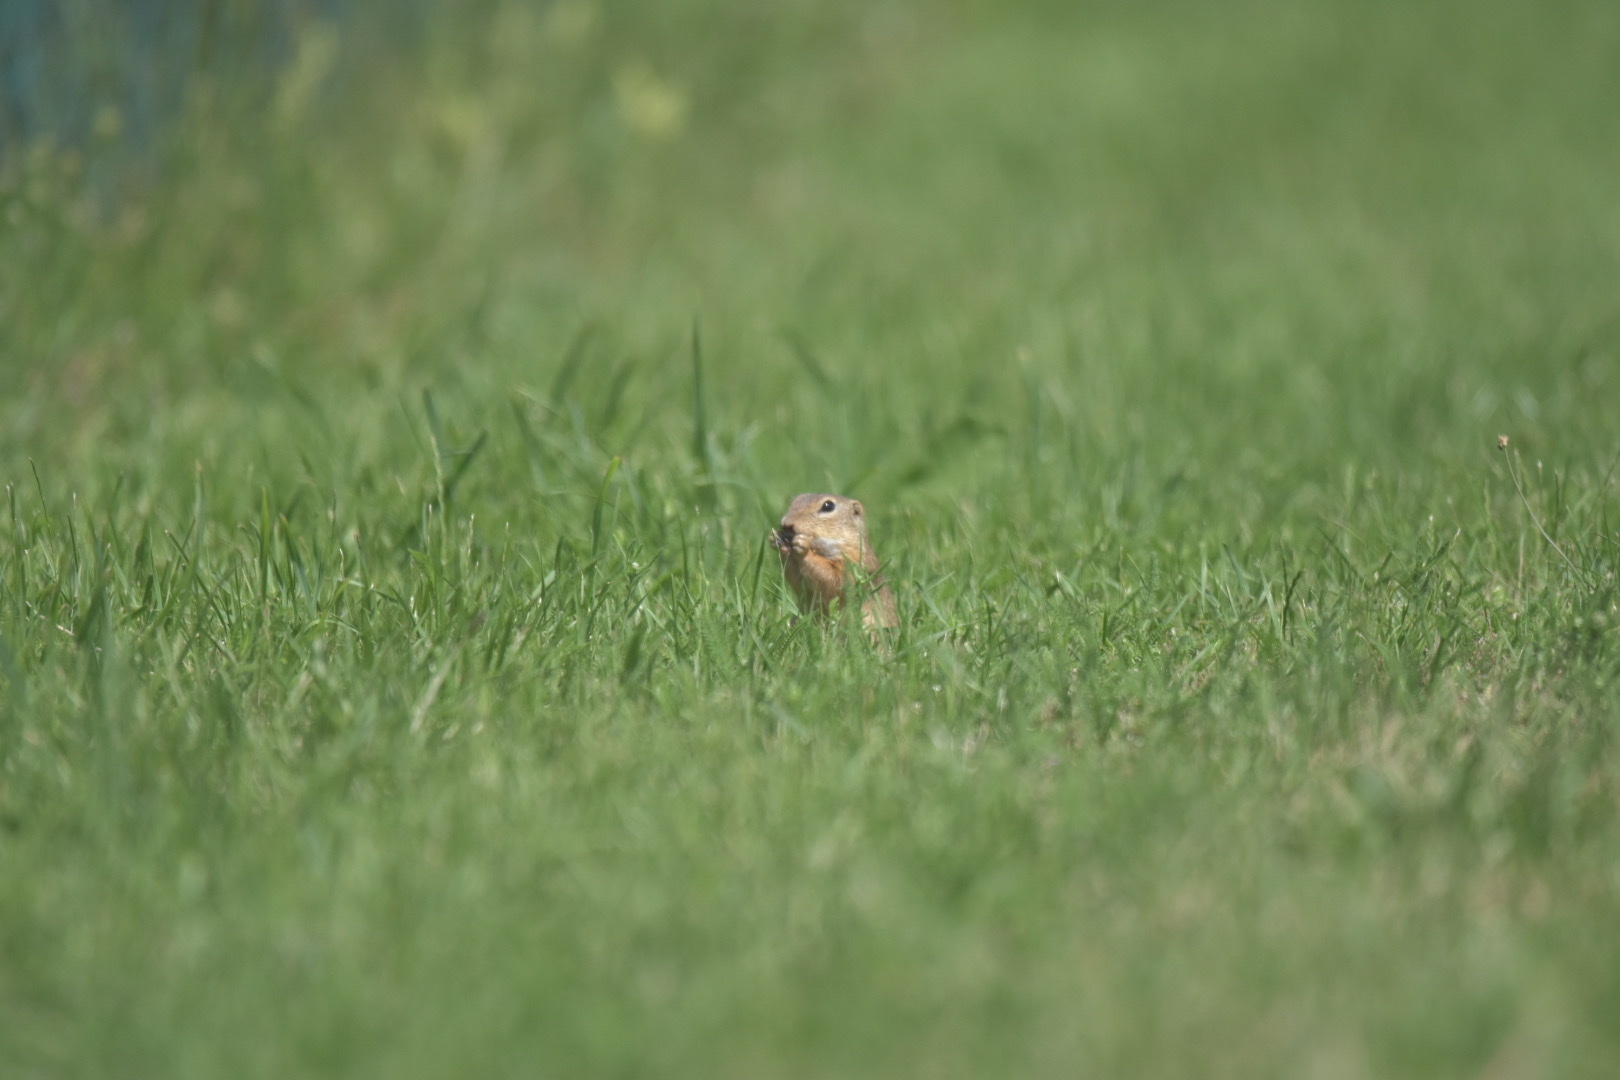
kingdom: Animalia
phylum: Chordata
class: Mammalia
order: Rodentia
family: Sciuridae
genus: Spermophilus
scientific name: Spermophilus citellus
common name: European ground squirrel
